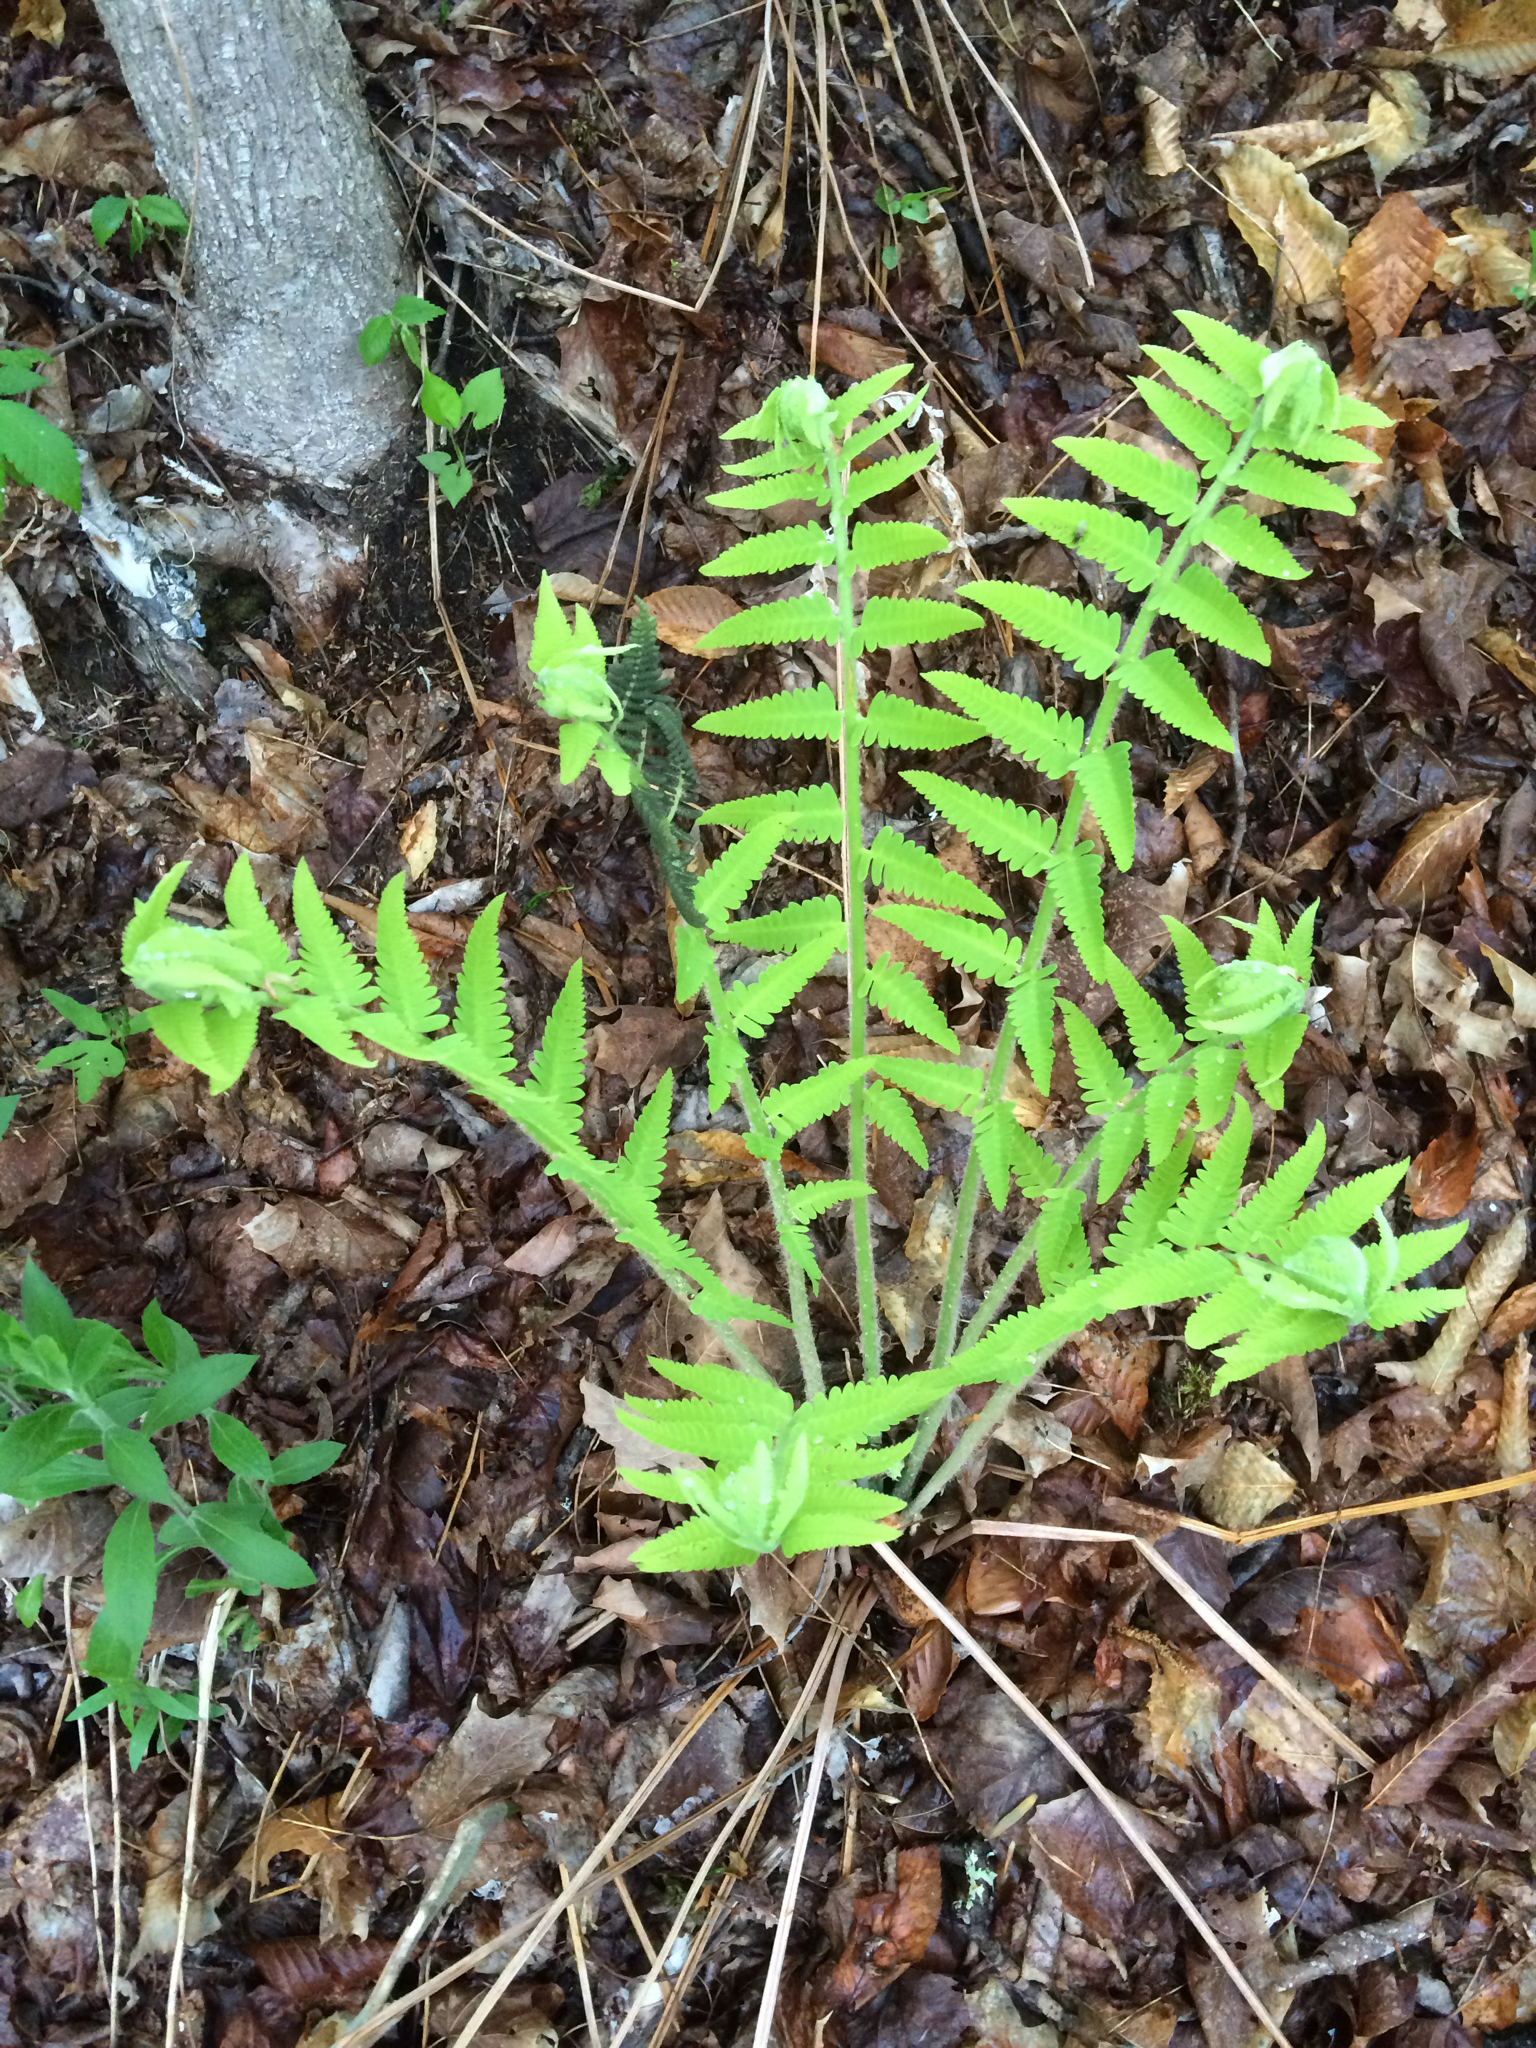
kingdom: Plantae
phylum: Tracheophyta
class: Polypodiopsida
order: Osmundales
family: Osmundaceae
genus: Claytosmunda
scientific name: Claytosmunda claytoniana
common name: Clayton's fern
